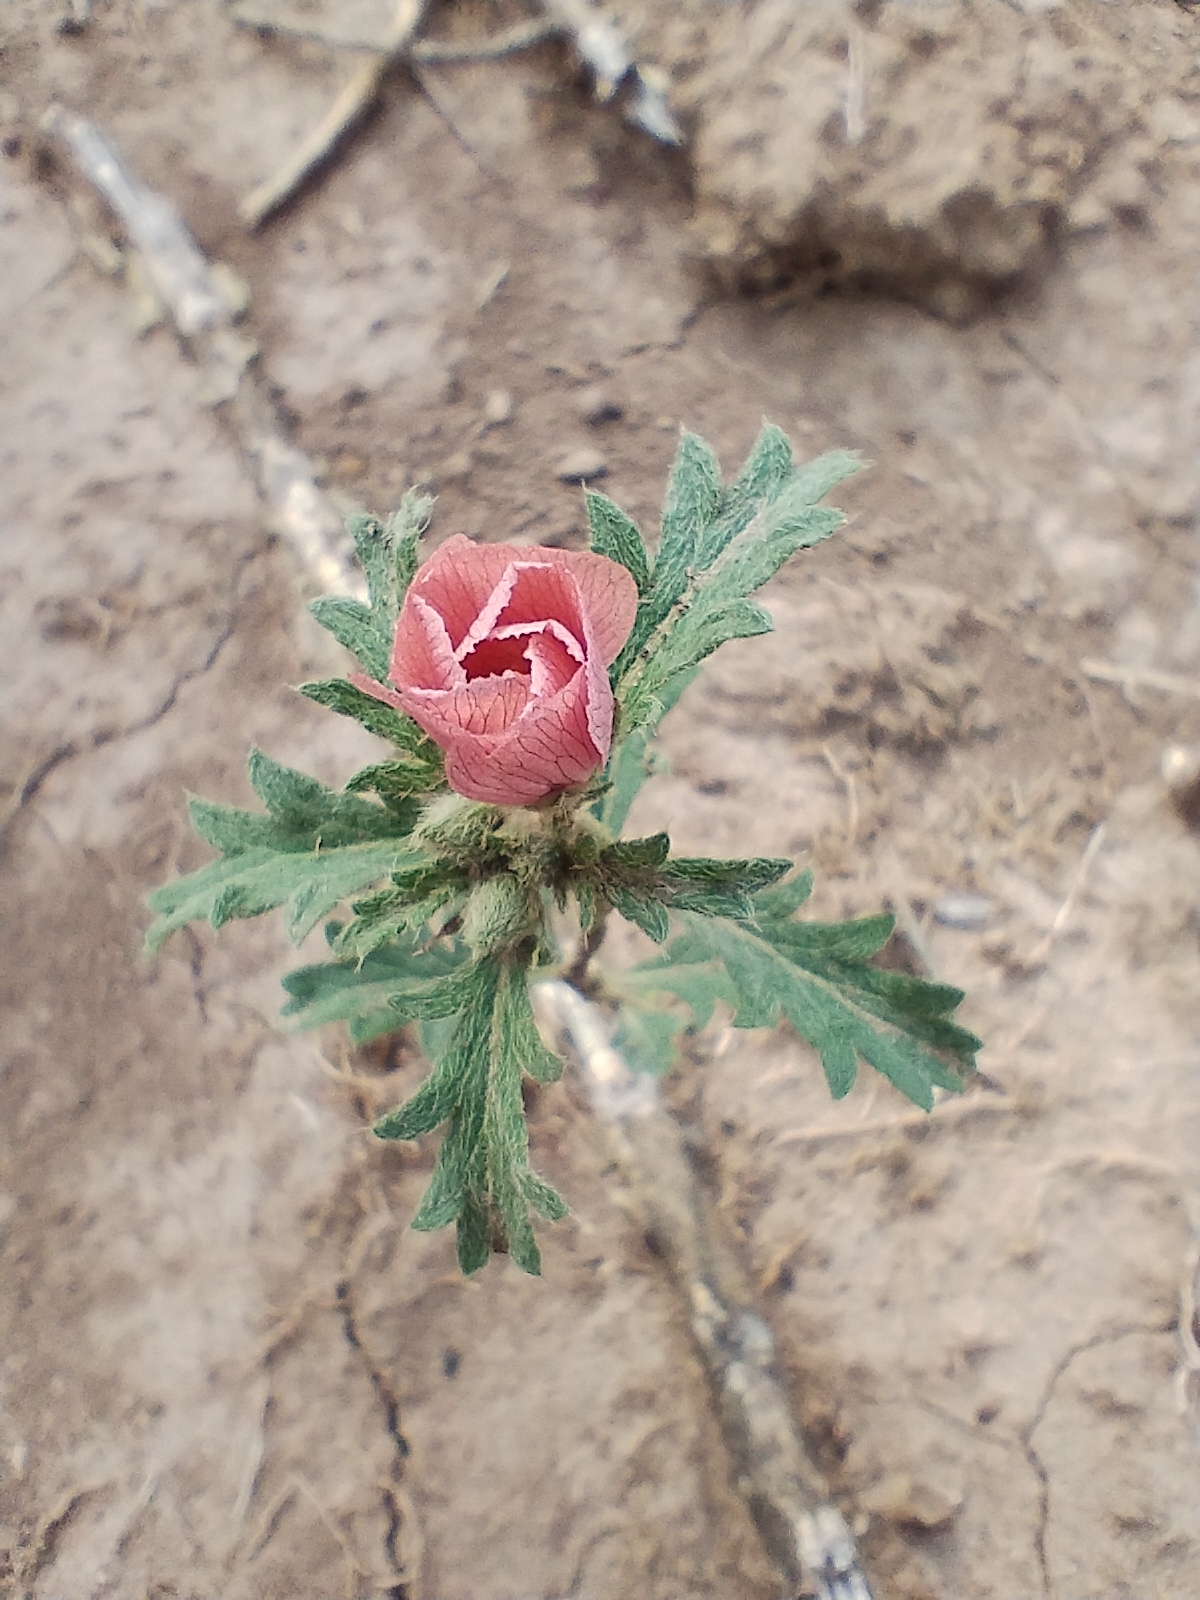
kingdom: Plantae
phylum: Tracheophyta
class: Magnoliopsida
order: Malpighiales
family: Turneraceae
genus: Turnera
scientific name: Turnera sidoides
